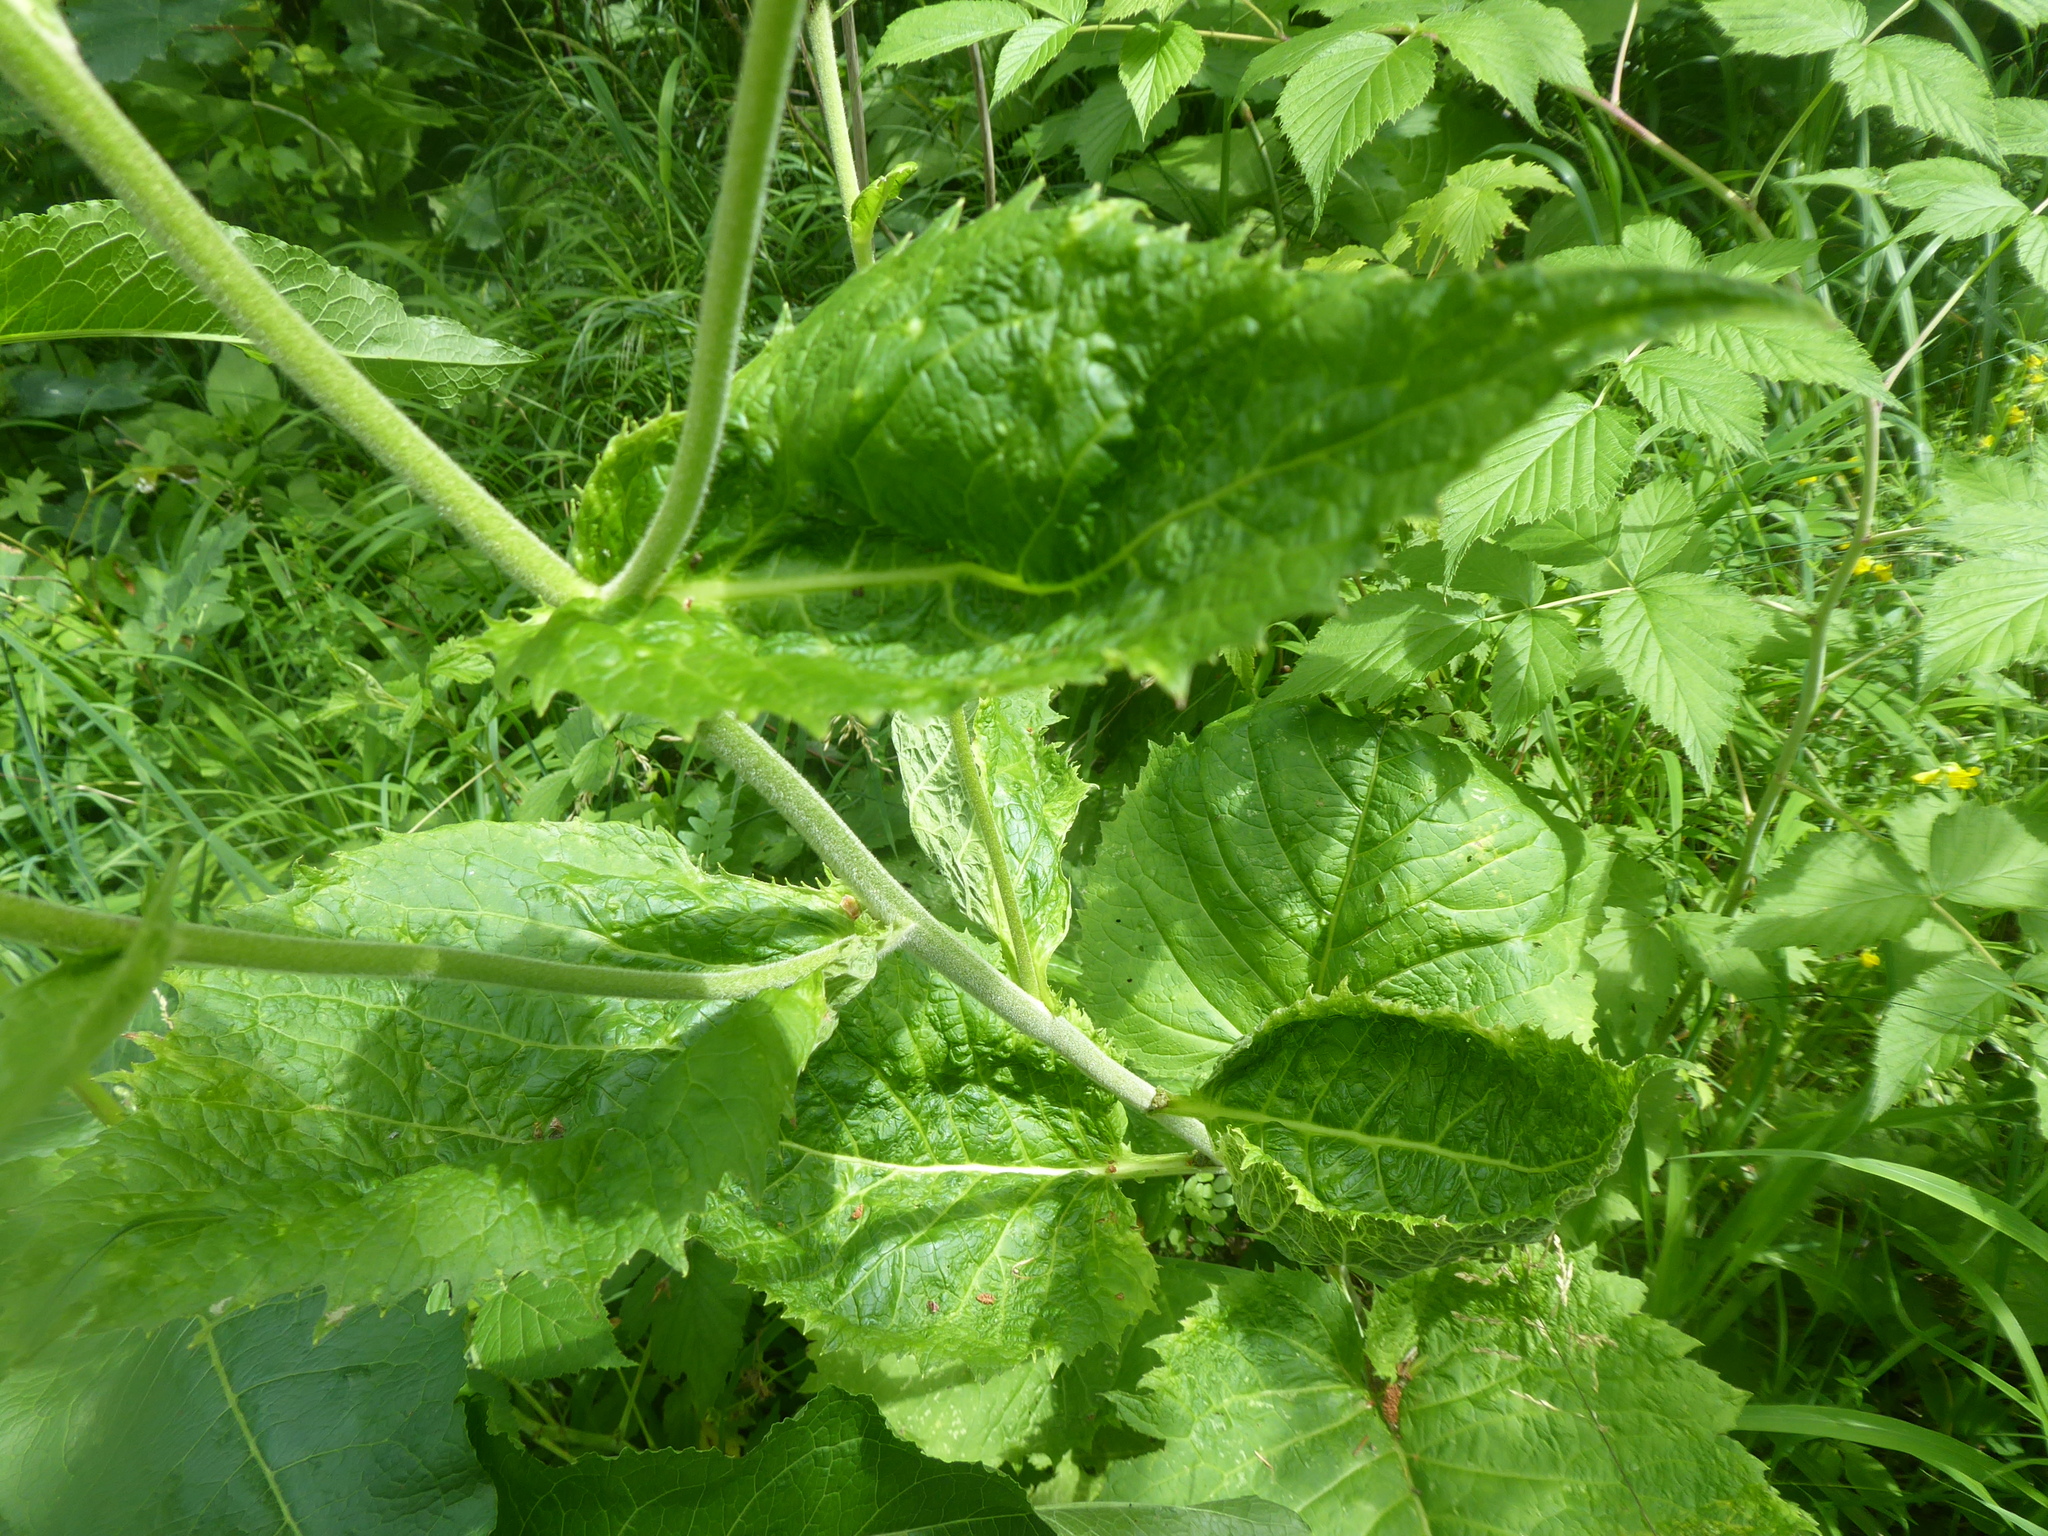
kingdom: Plantae
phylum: Tracheophyta
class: Magnoliopsida
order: Asterales
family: Asteraceae
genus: Telekia
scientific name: Telekia speciosa
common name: Yellow oxeye
